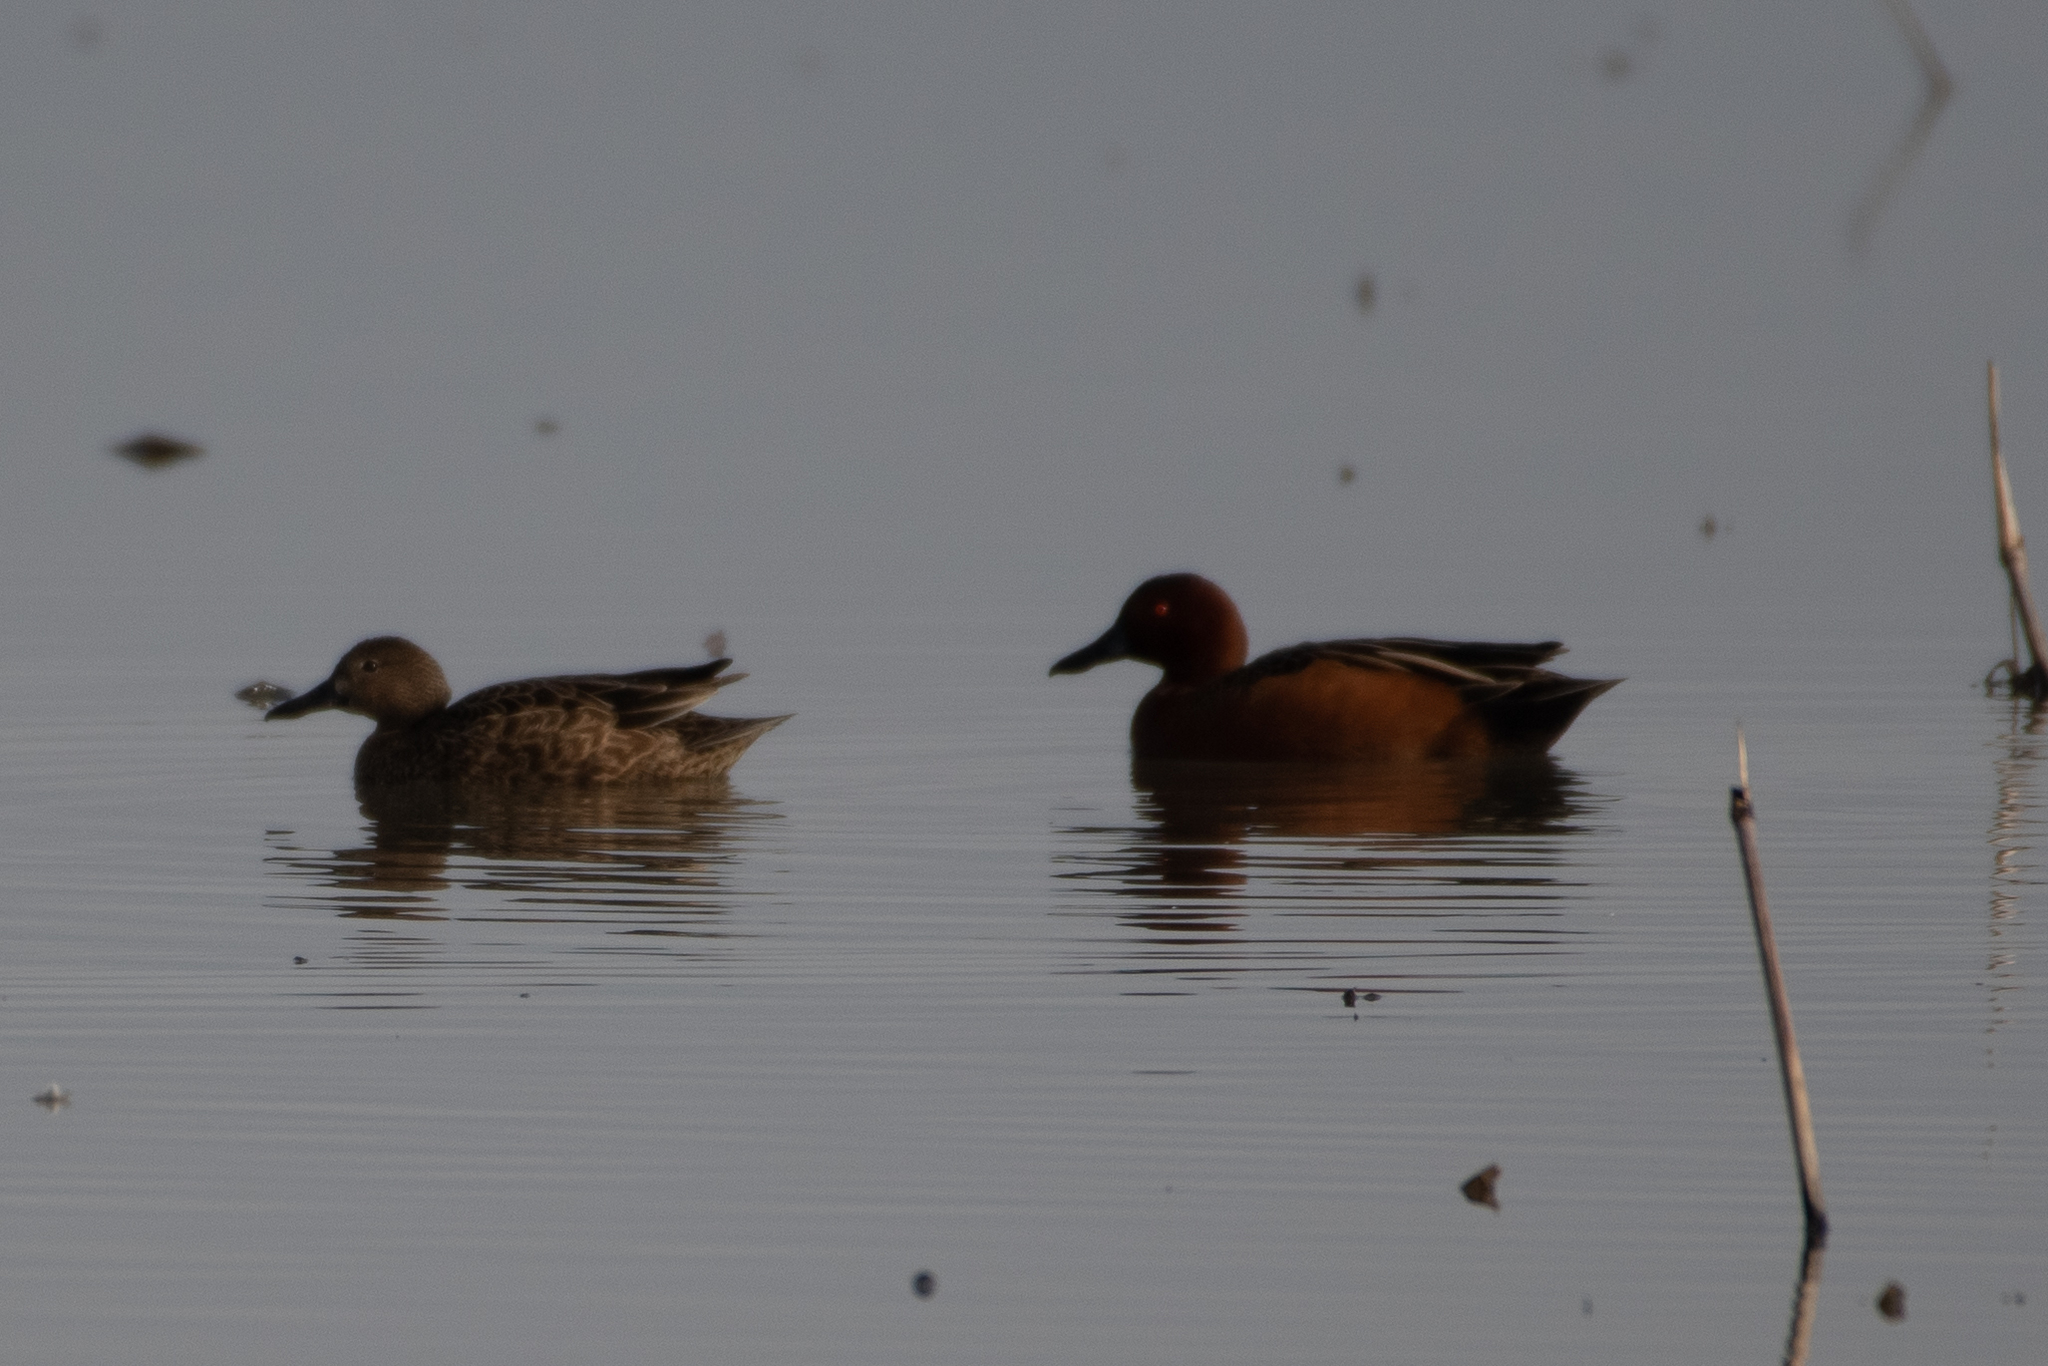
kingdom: Animalia
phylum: Chordata
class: Aves
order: Anseriformes
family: Anatidae
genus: Spatula
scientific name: Spatula cyanoptera
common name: Cinnamon teal
